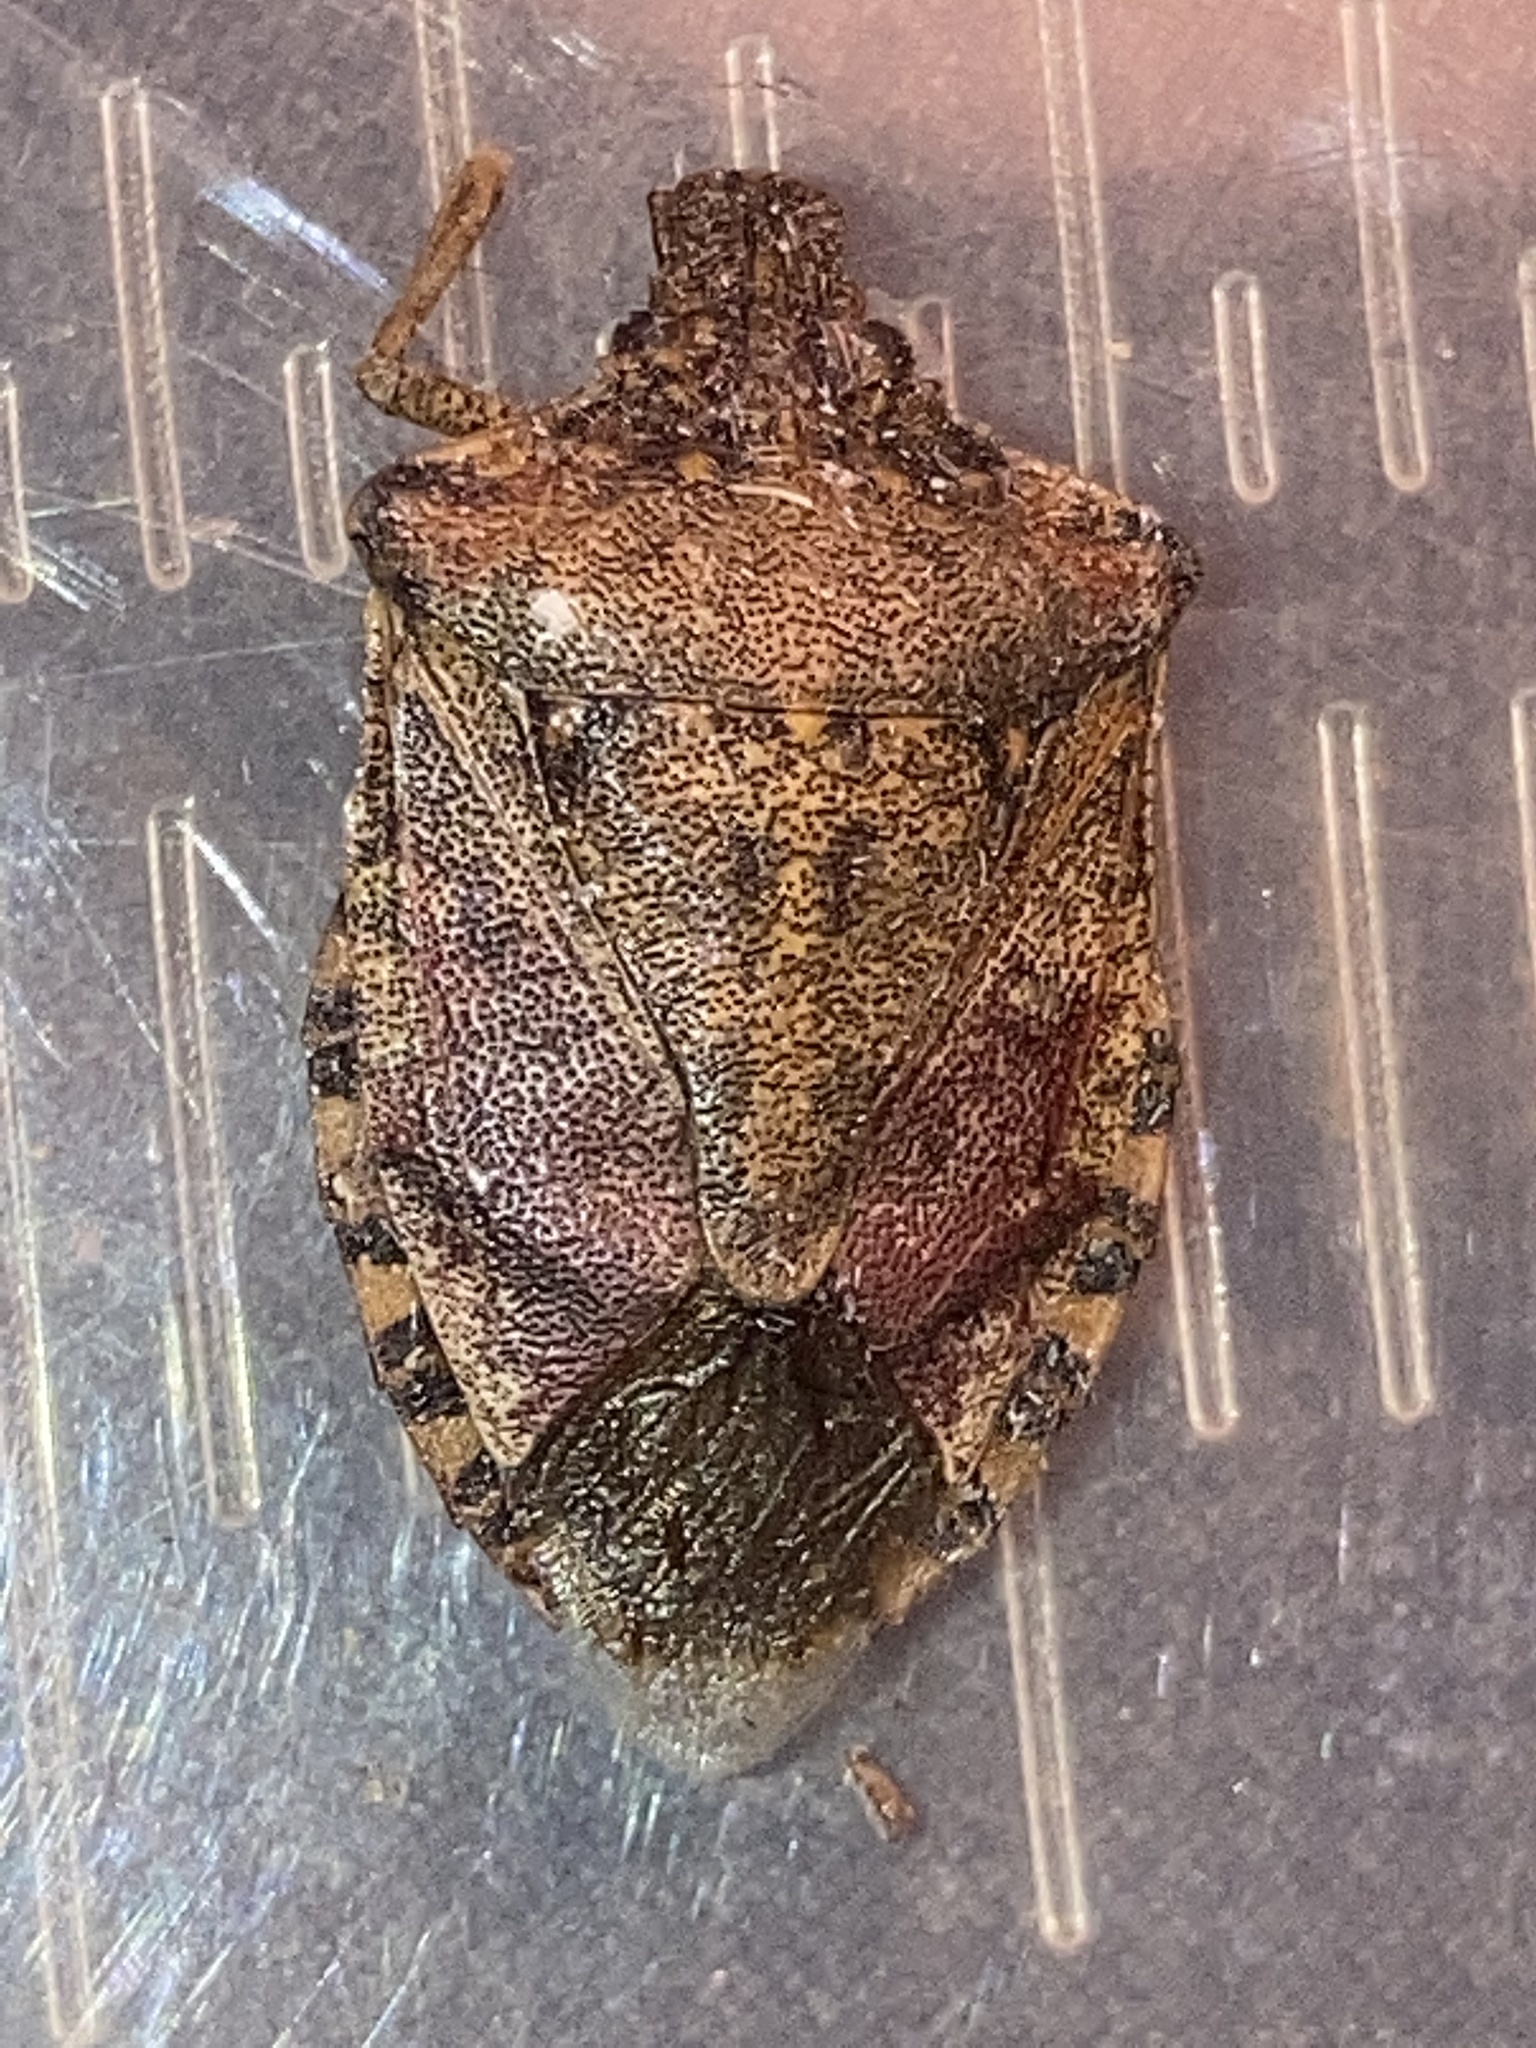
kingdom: Animalia
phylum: Arthropoda
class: Insecta
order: Hemiptera
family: Pentatomidae
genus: Halyomorpha
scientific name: Halyomorpha halys
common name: Brown marmorated stink bug
